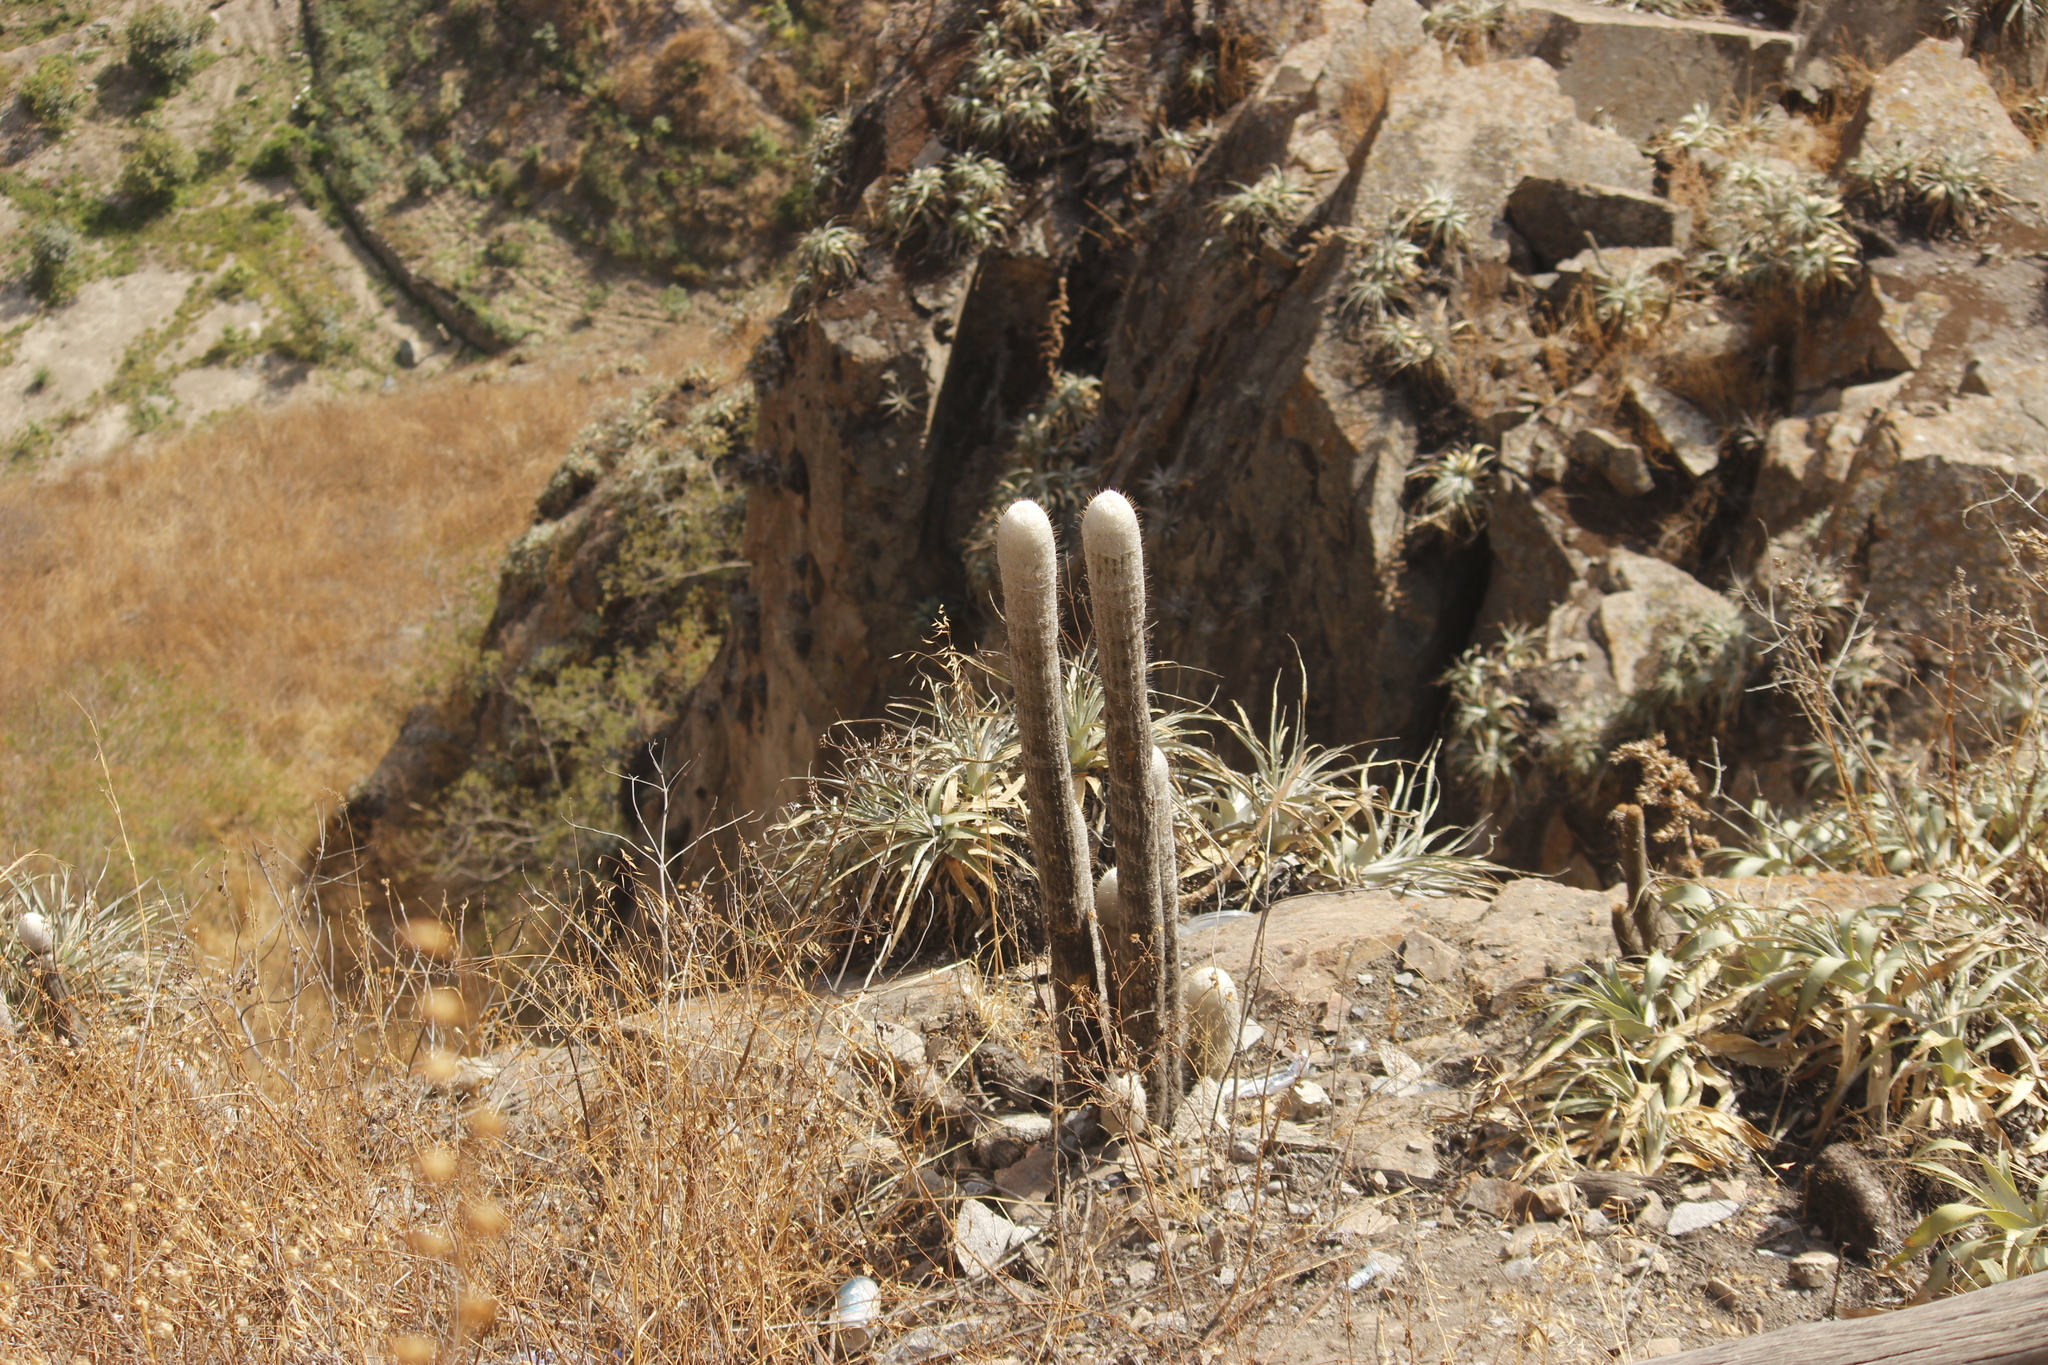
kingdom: Plantae
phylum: Tracheophyta
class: Magnoliopsida
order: Caryophyllales
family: Cactaceae
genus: Espostoa
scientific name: Espostoa melanostele
